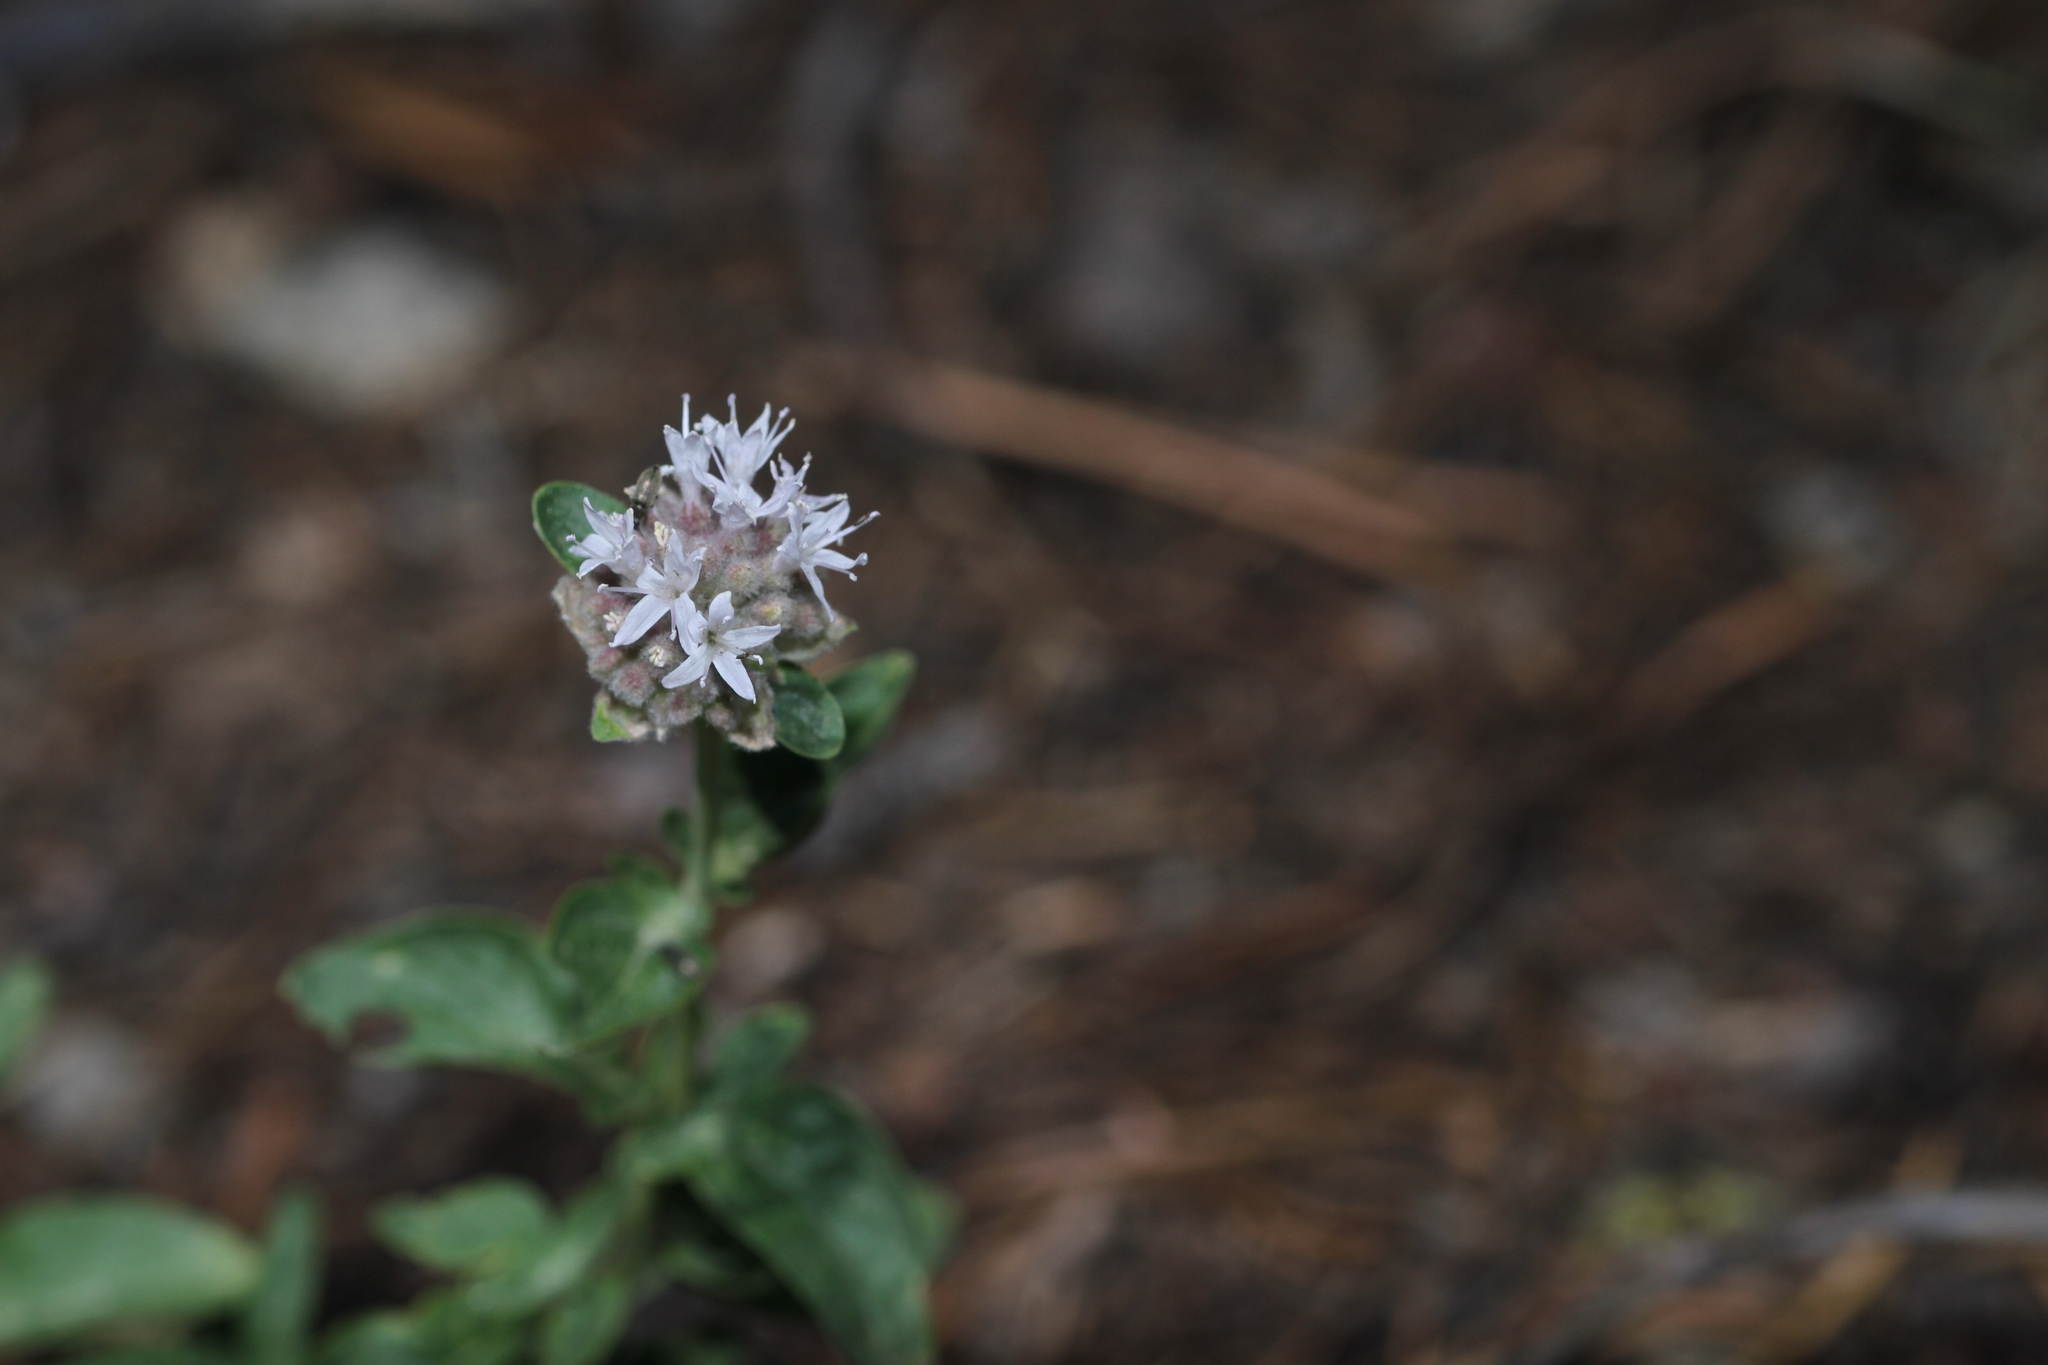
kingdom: Plantae
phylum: Tracheophyta
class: Magnoliopsida
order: Lamiales
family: Lamiaceae
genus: Monardella
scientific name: Monardella odoratissima
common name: Pacific monardella
